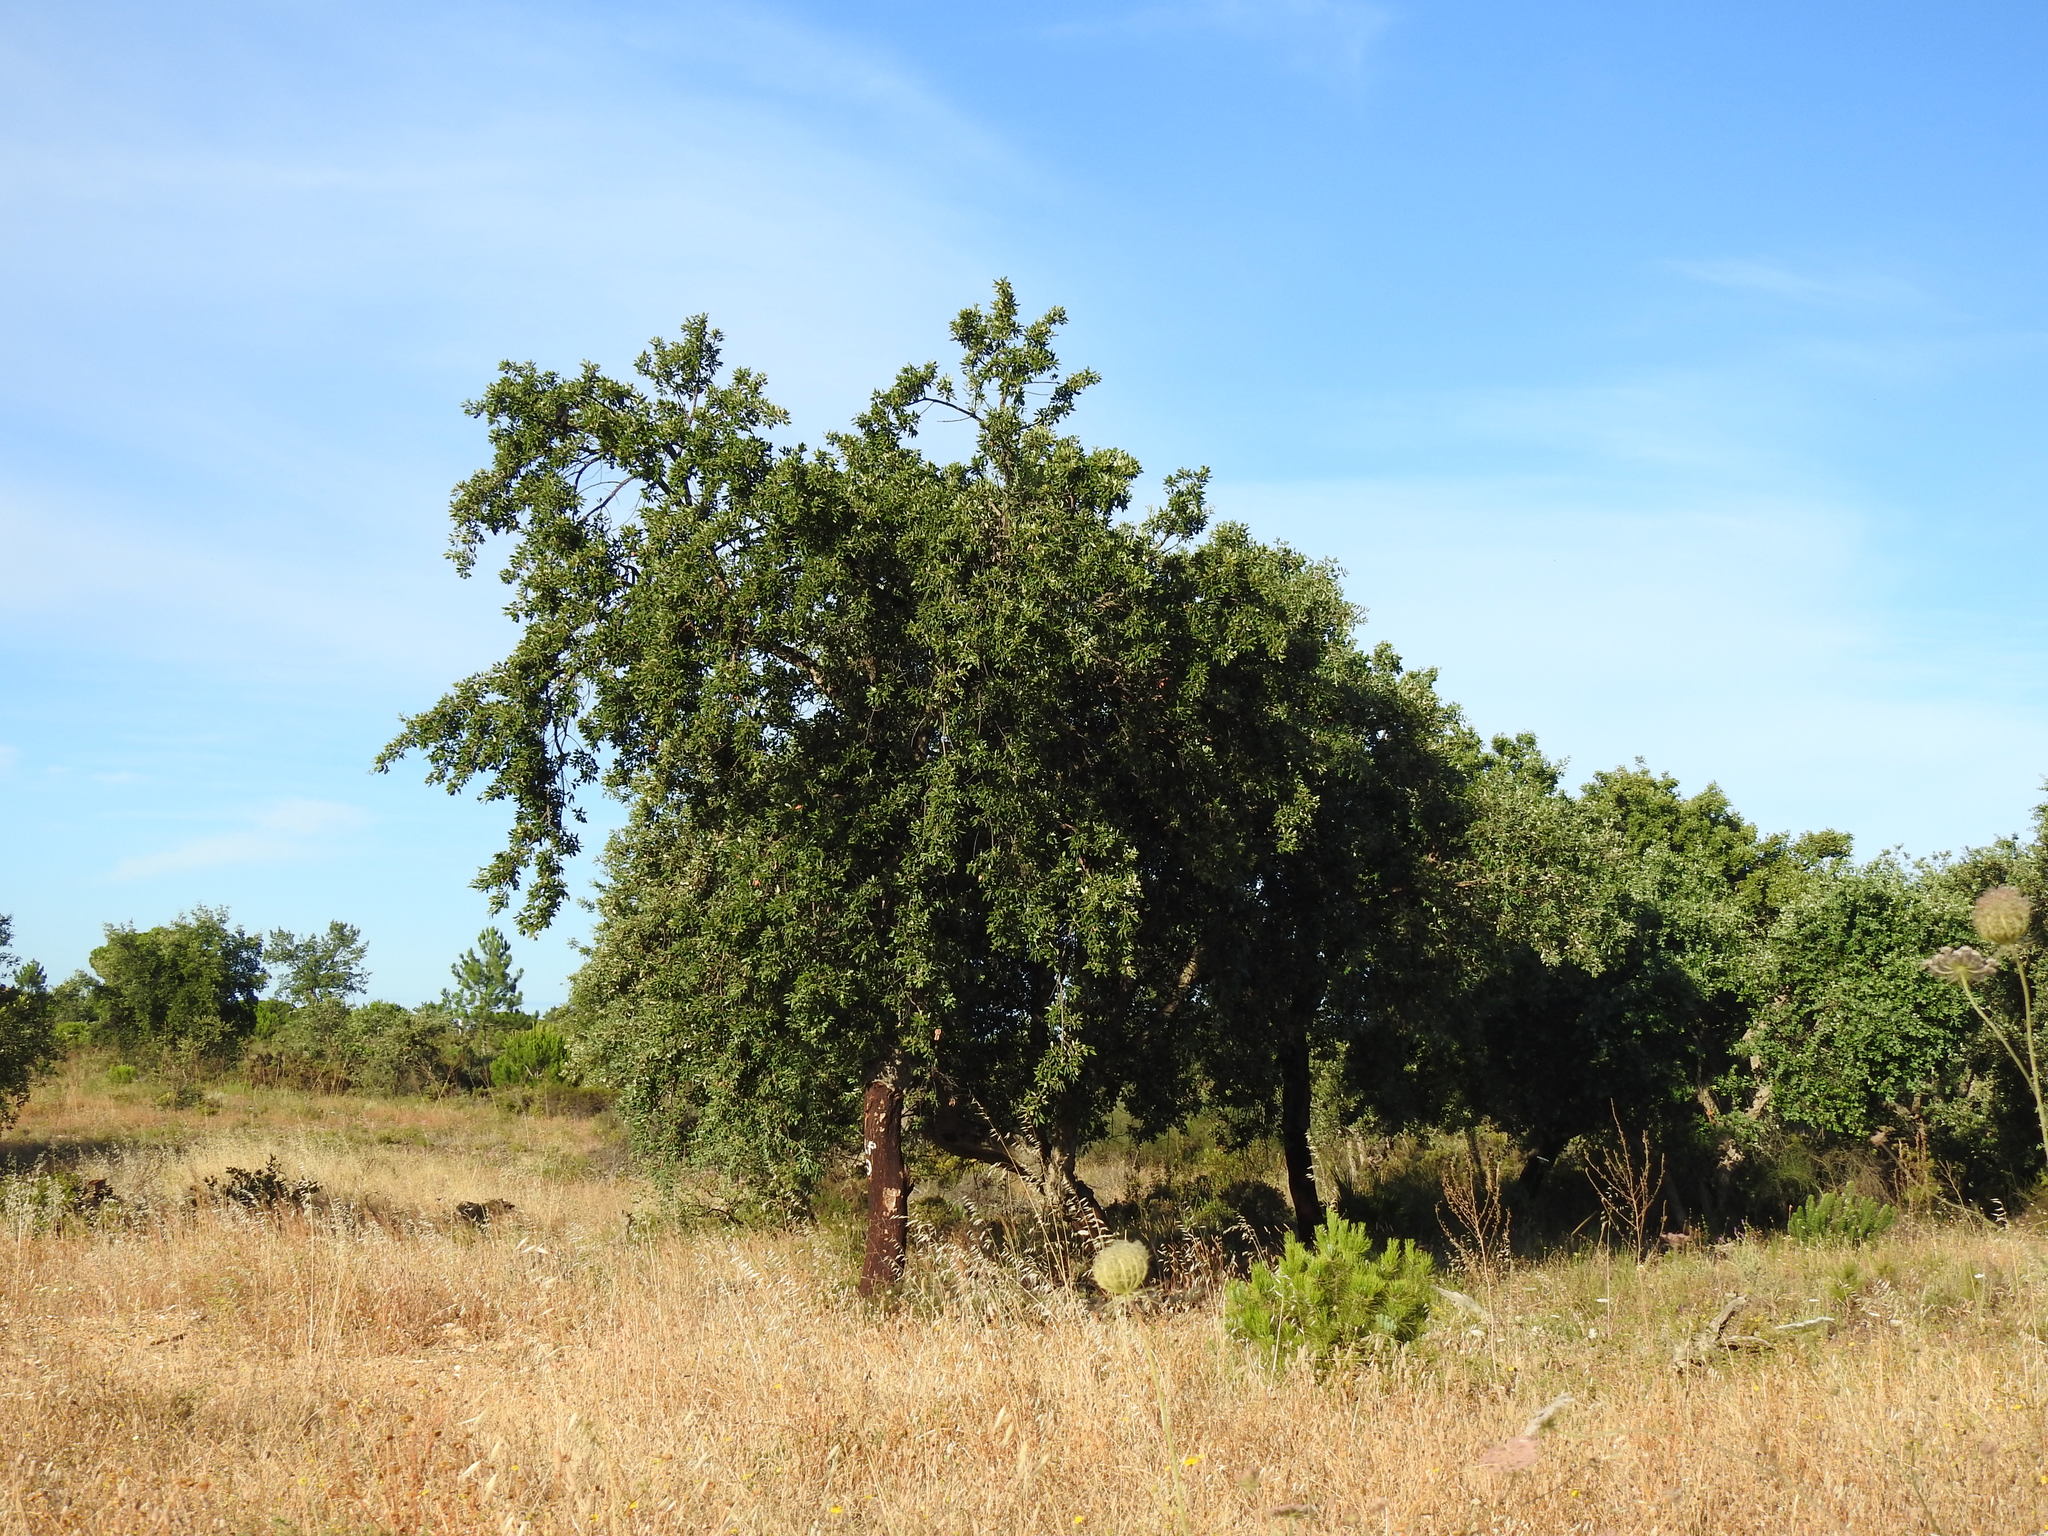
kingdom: Plantae
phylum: Tracheophyta
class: Magnoliopsida
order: Fagales
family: Fagaceae
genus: Quercus
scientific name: Quercus suber
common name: Cork oak
